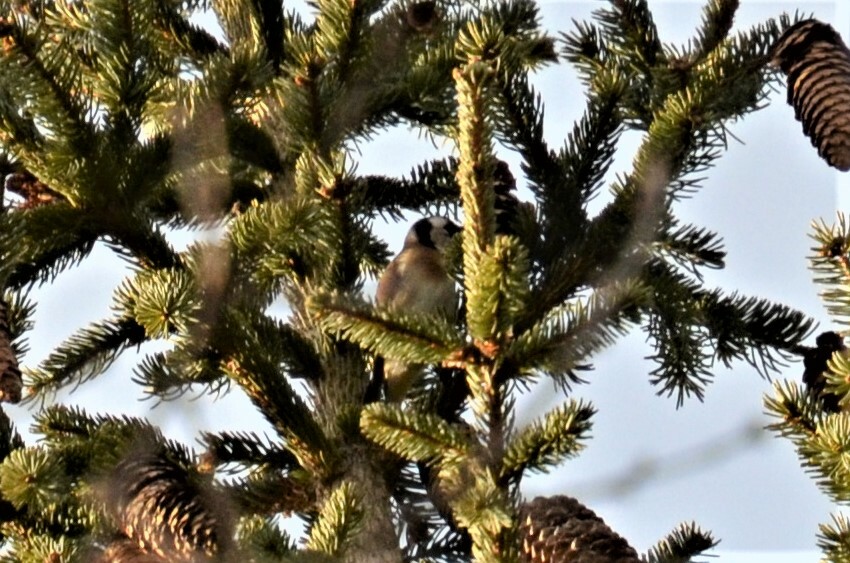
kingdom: Animalia
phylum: Chordata
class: Aves
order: Passeriformes
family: Fringillidae
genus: Carduelis
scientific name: Carduelis carduelis
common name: European goldfinch
